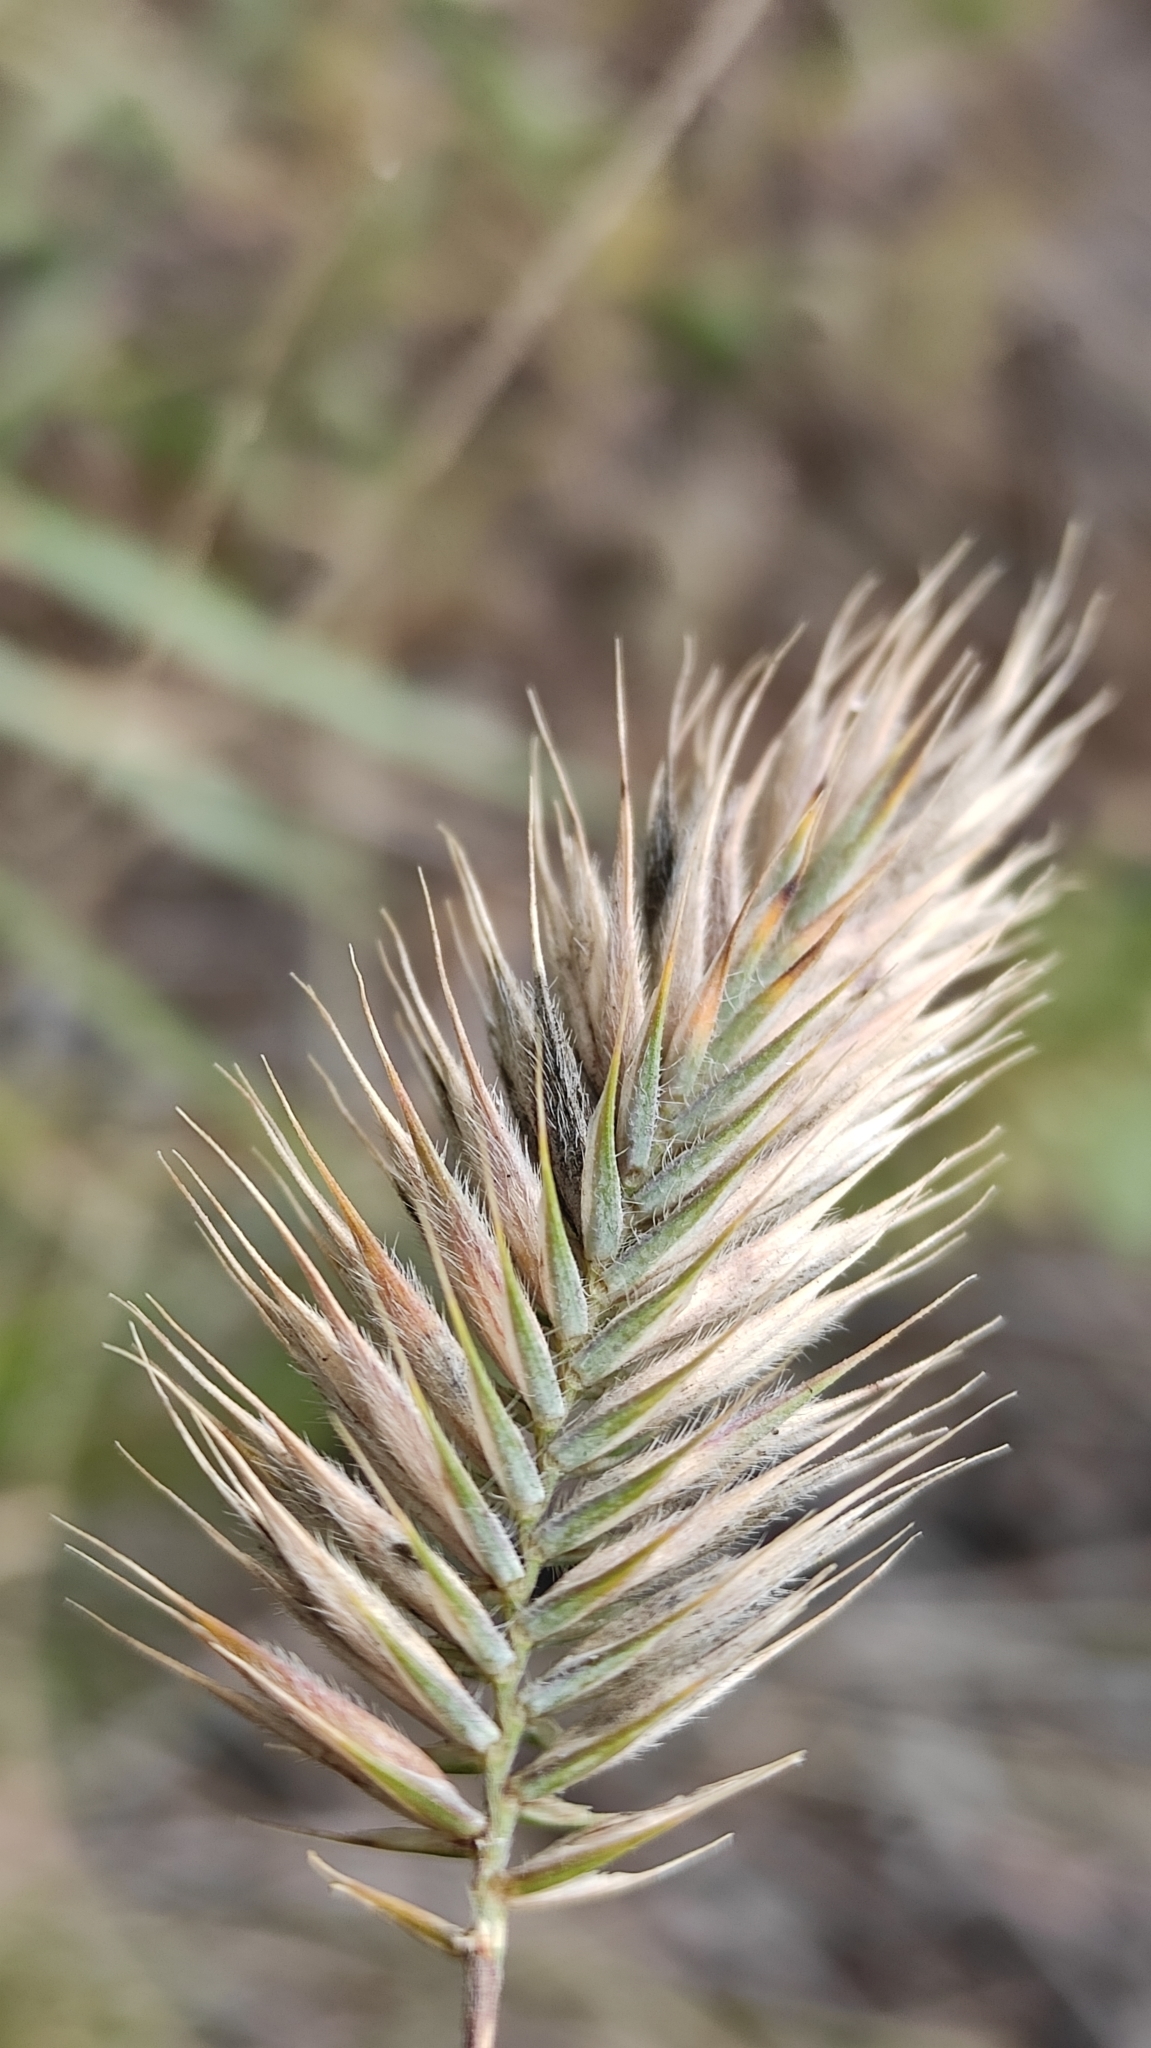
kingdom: Plantae
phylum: Tracheophyta
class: Liliopsida
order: Poales
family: Poaceae
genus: Agropyron
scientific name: Agropyron cristatum
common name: Crested wheatgrass
